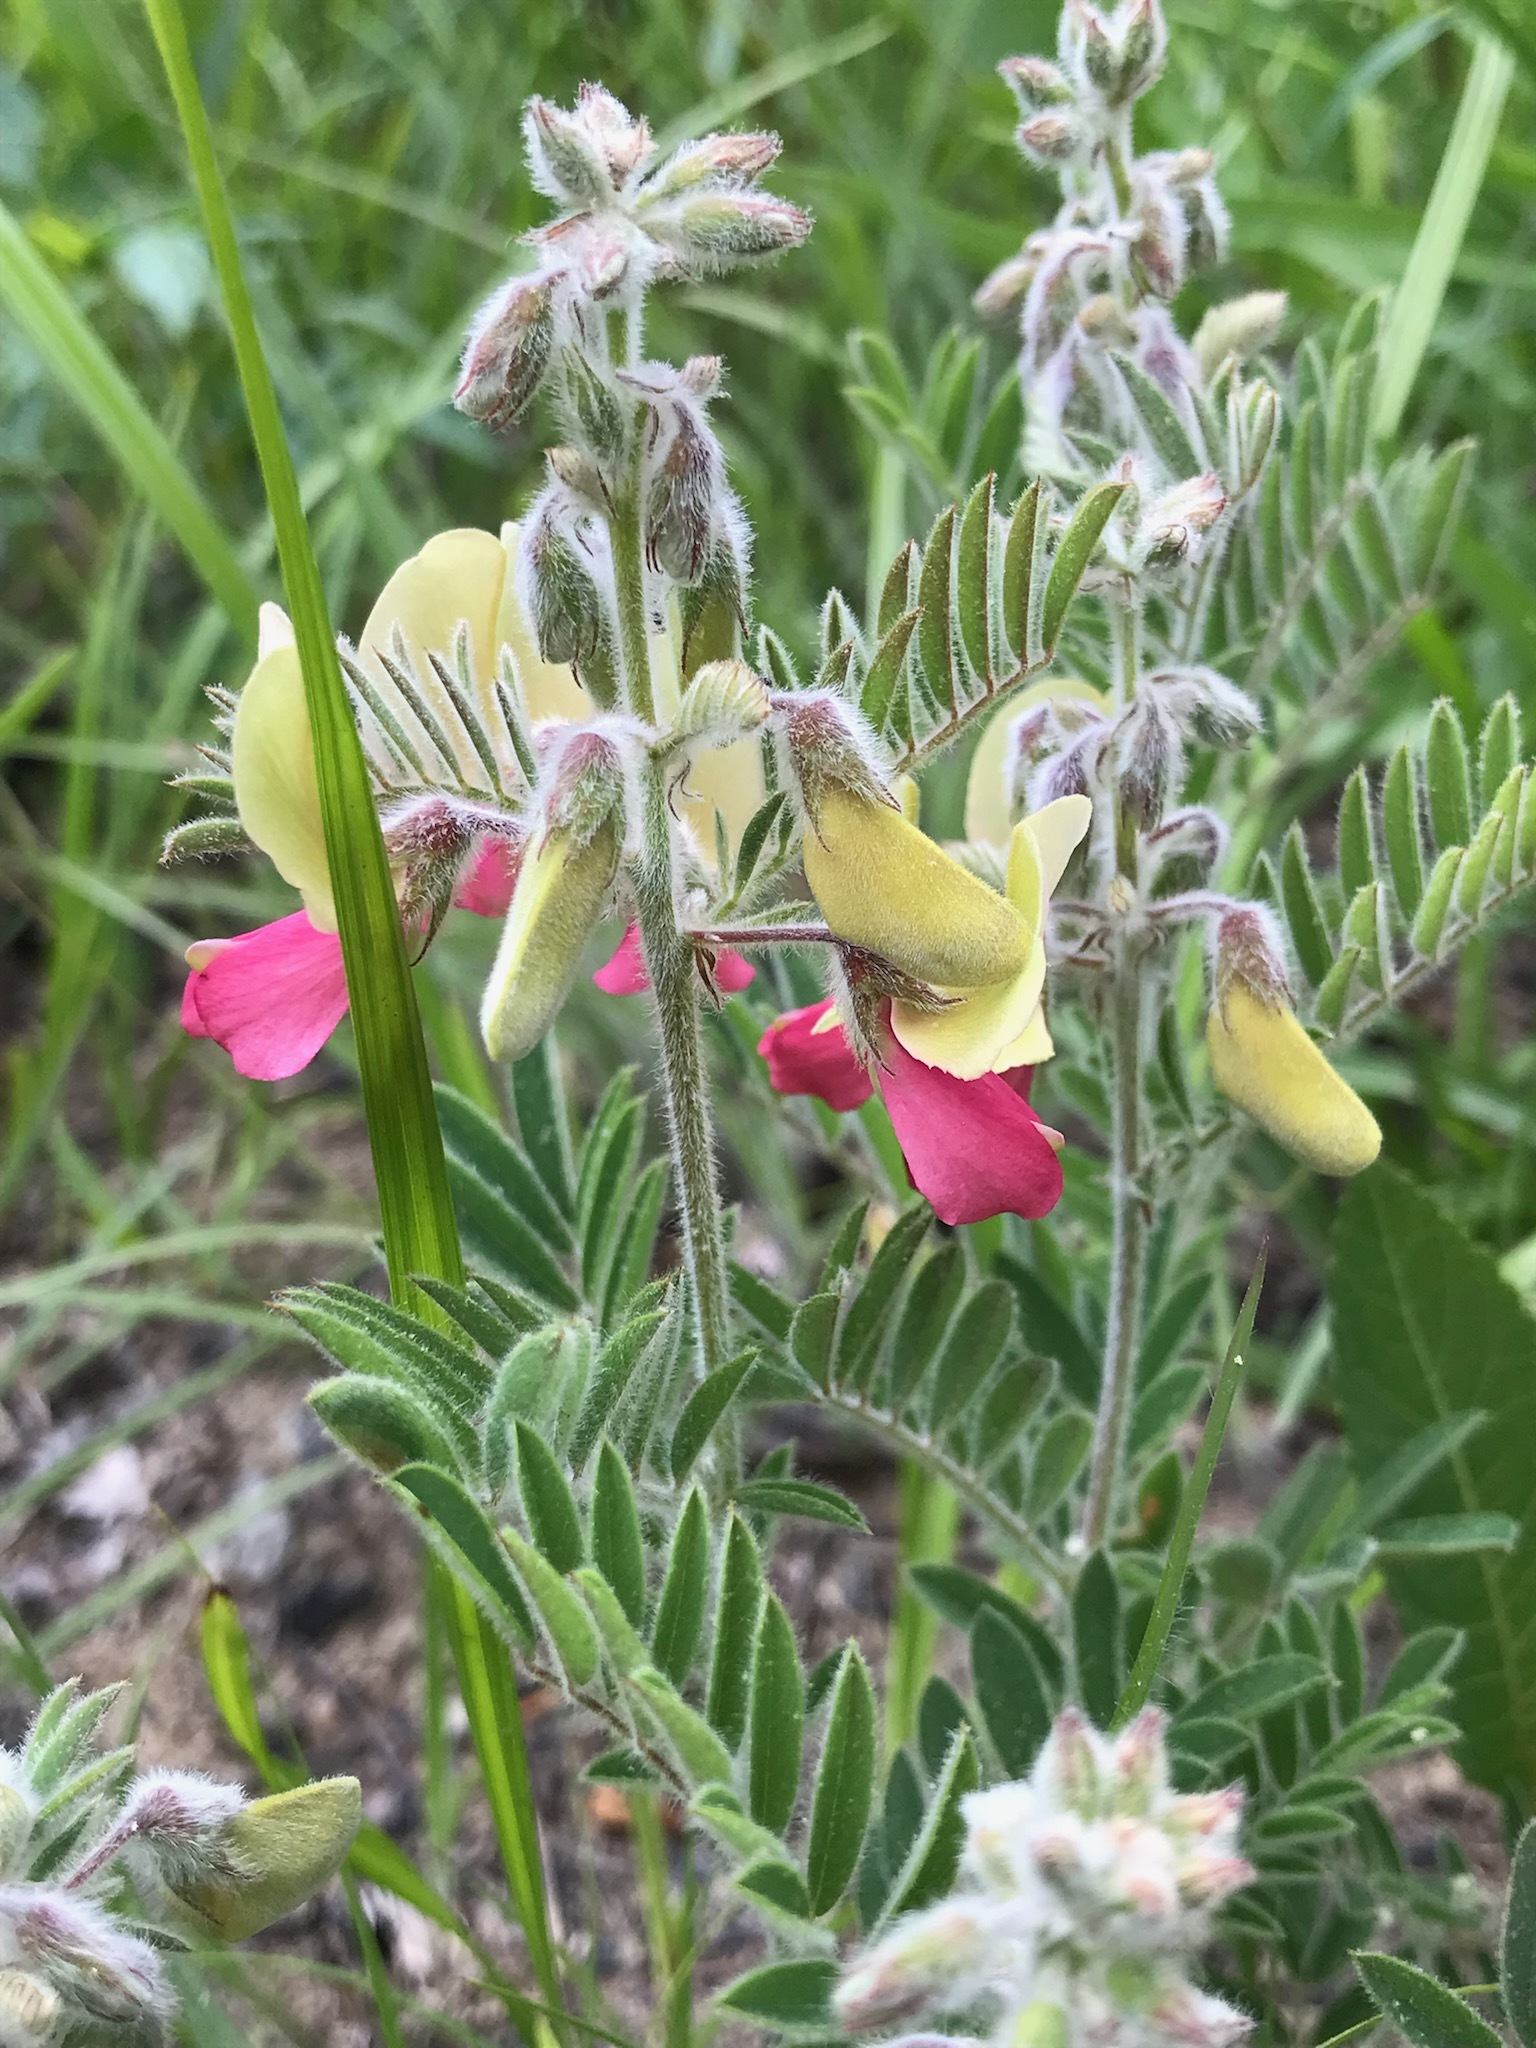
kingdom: Plantae
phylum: Tracheophyta
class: Magnoliopsida
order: Fabales
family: Fabaceae
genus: Tephrosia
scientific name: Tephrosia virginiana
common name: Rabbit-pea
